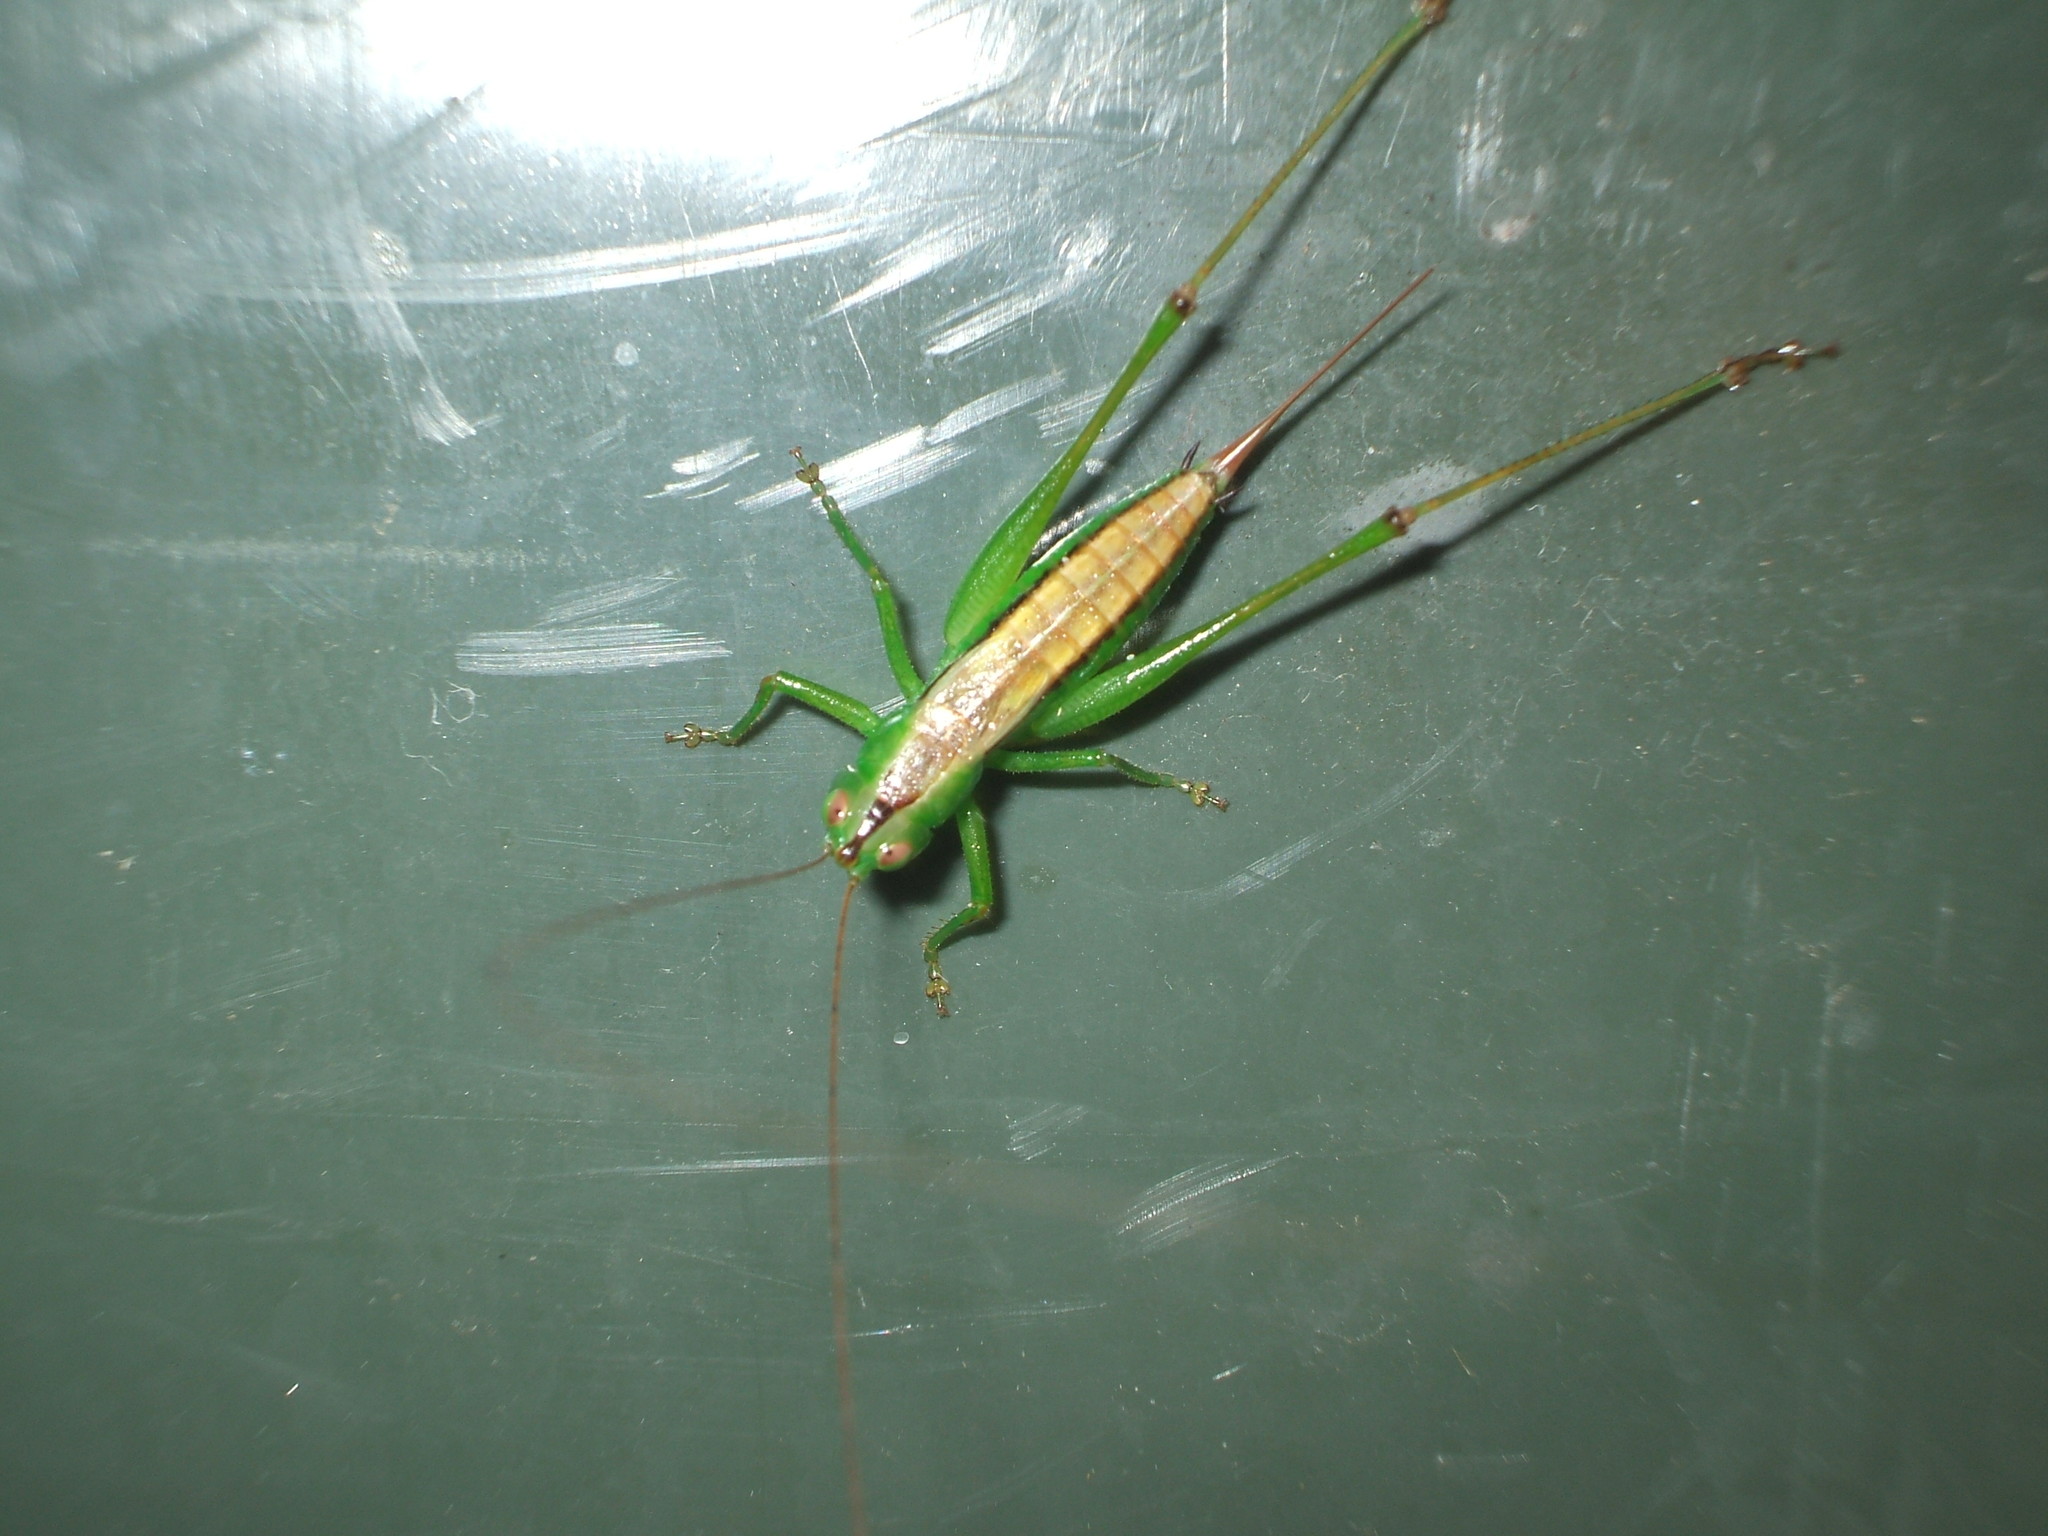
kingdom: Animalia
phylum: Arthropoda
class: Insecta
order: Orthoptera
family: Tettigoniidae
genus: Conocephalus
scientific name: Conocephalus semivittatus
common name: Blackish meadow katydid
